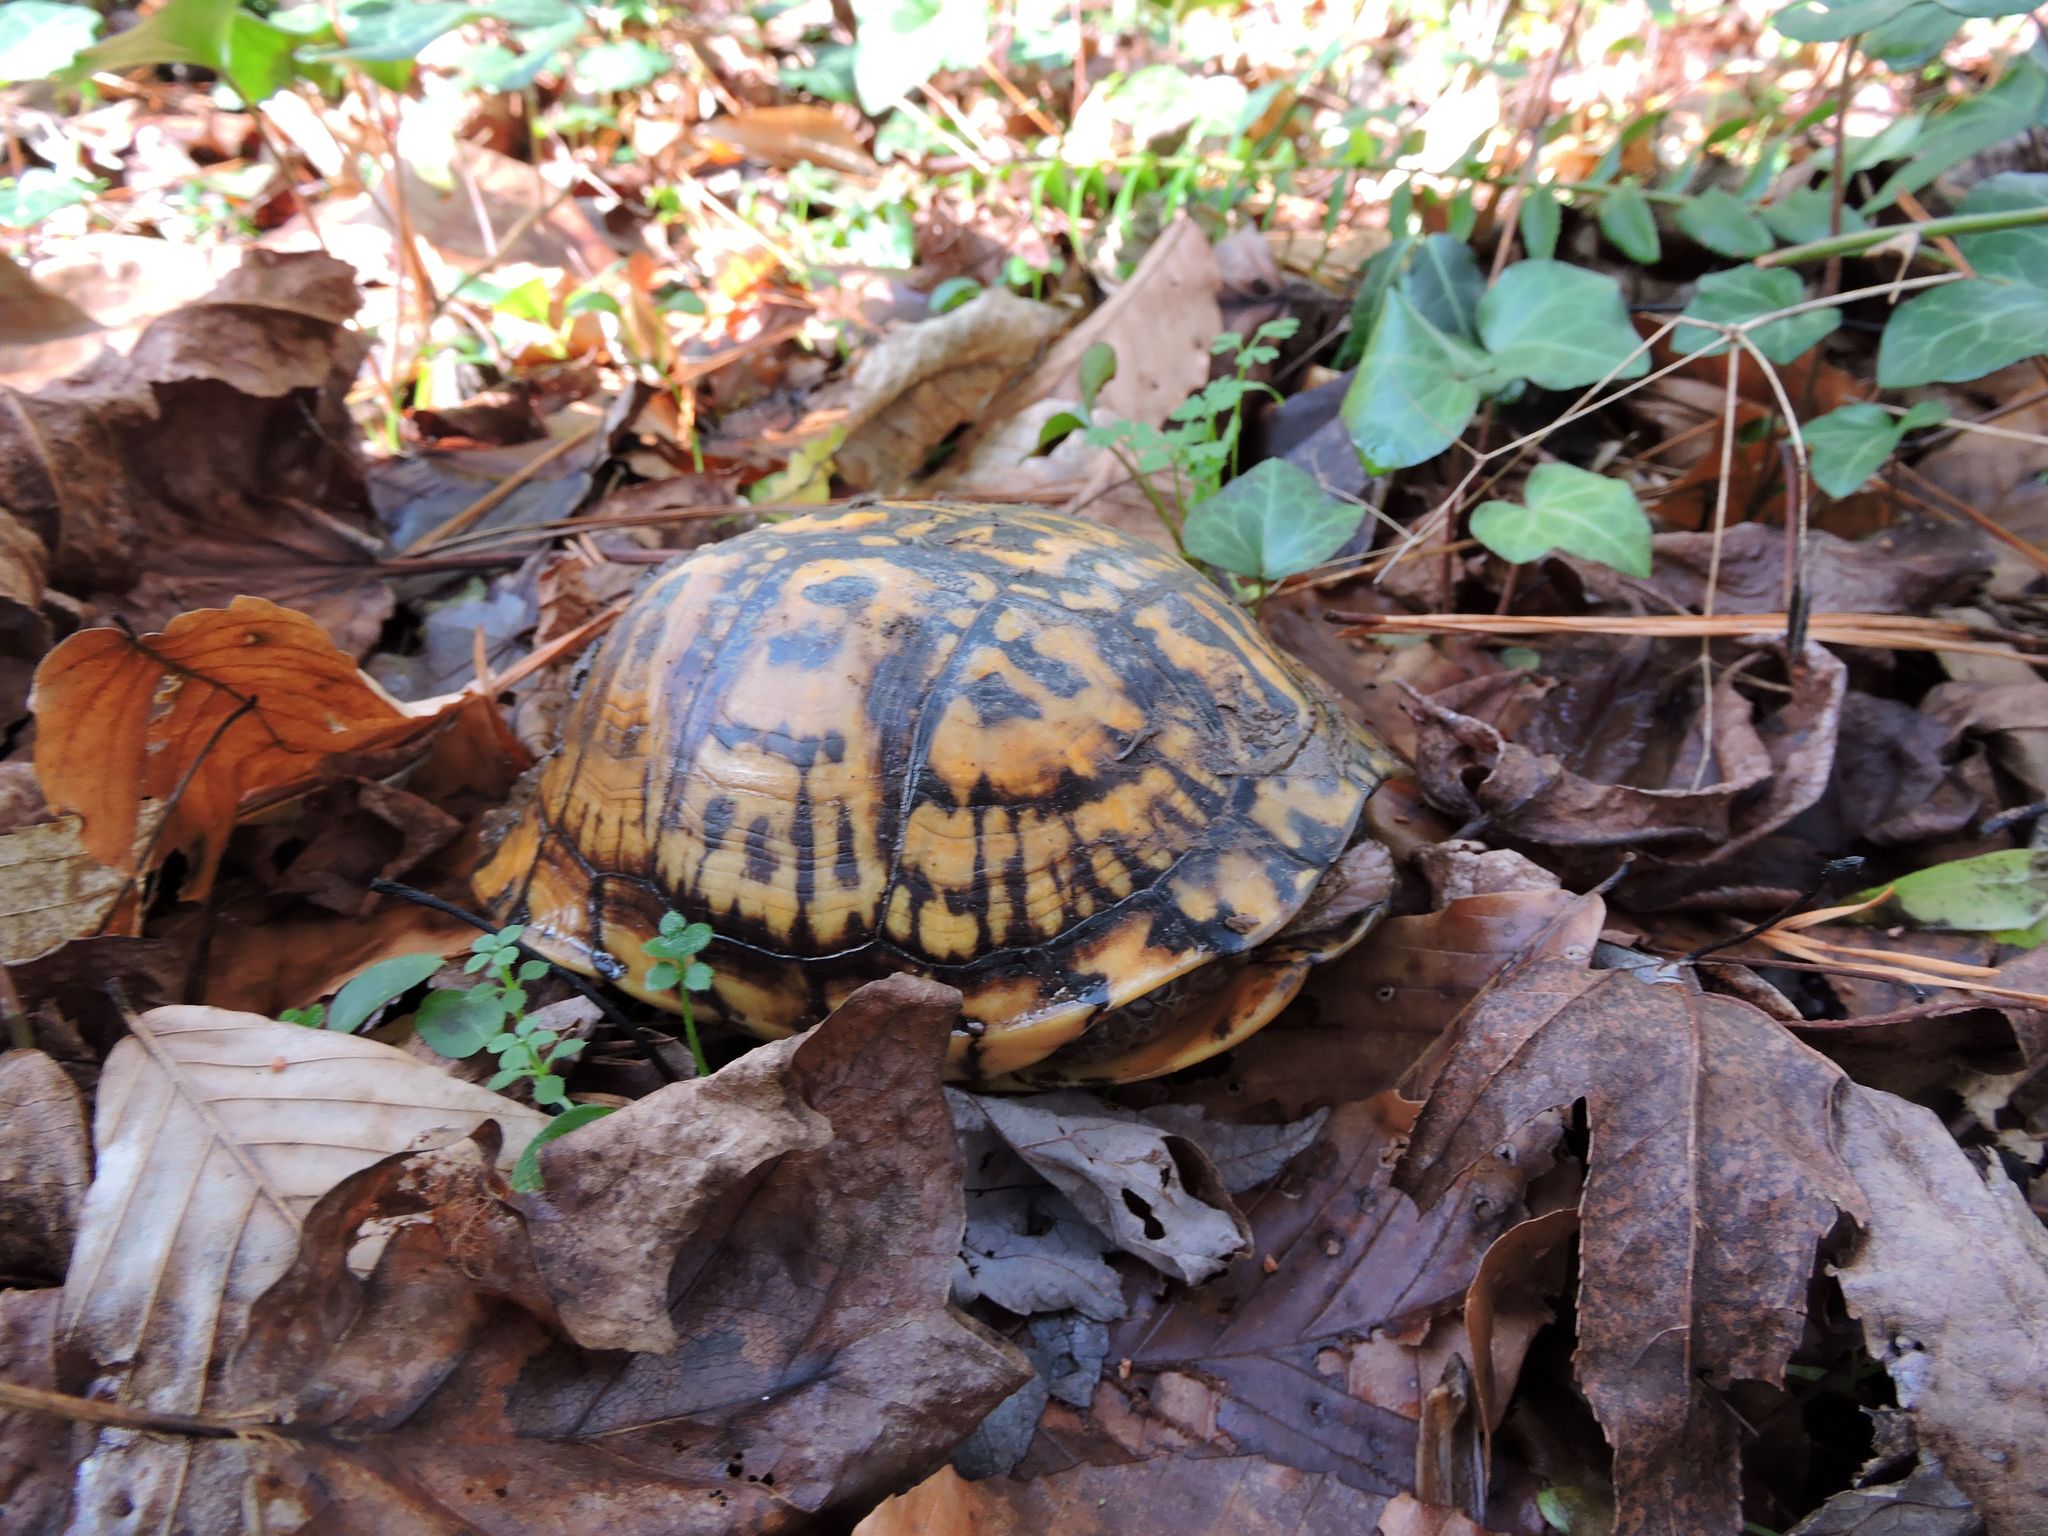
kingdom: Animalia
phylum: Chordata
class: Testudines
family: Emydidae
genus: Terrapene
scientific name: Terrapene carolina
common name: Common box turtle
